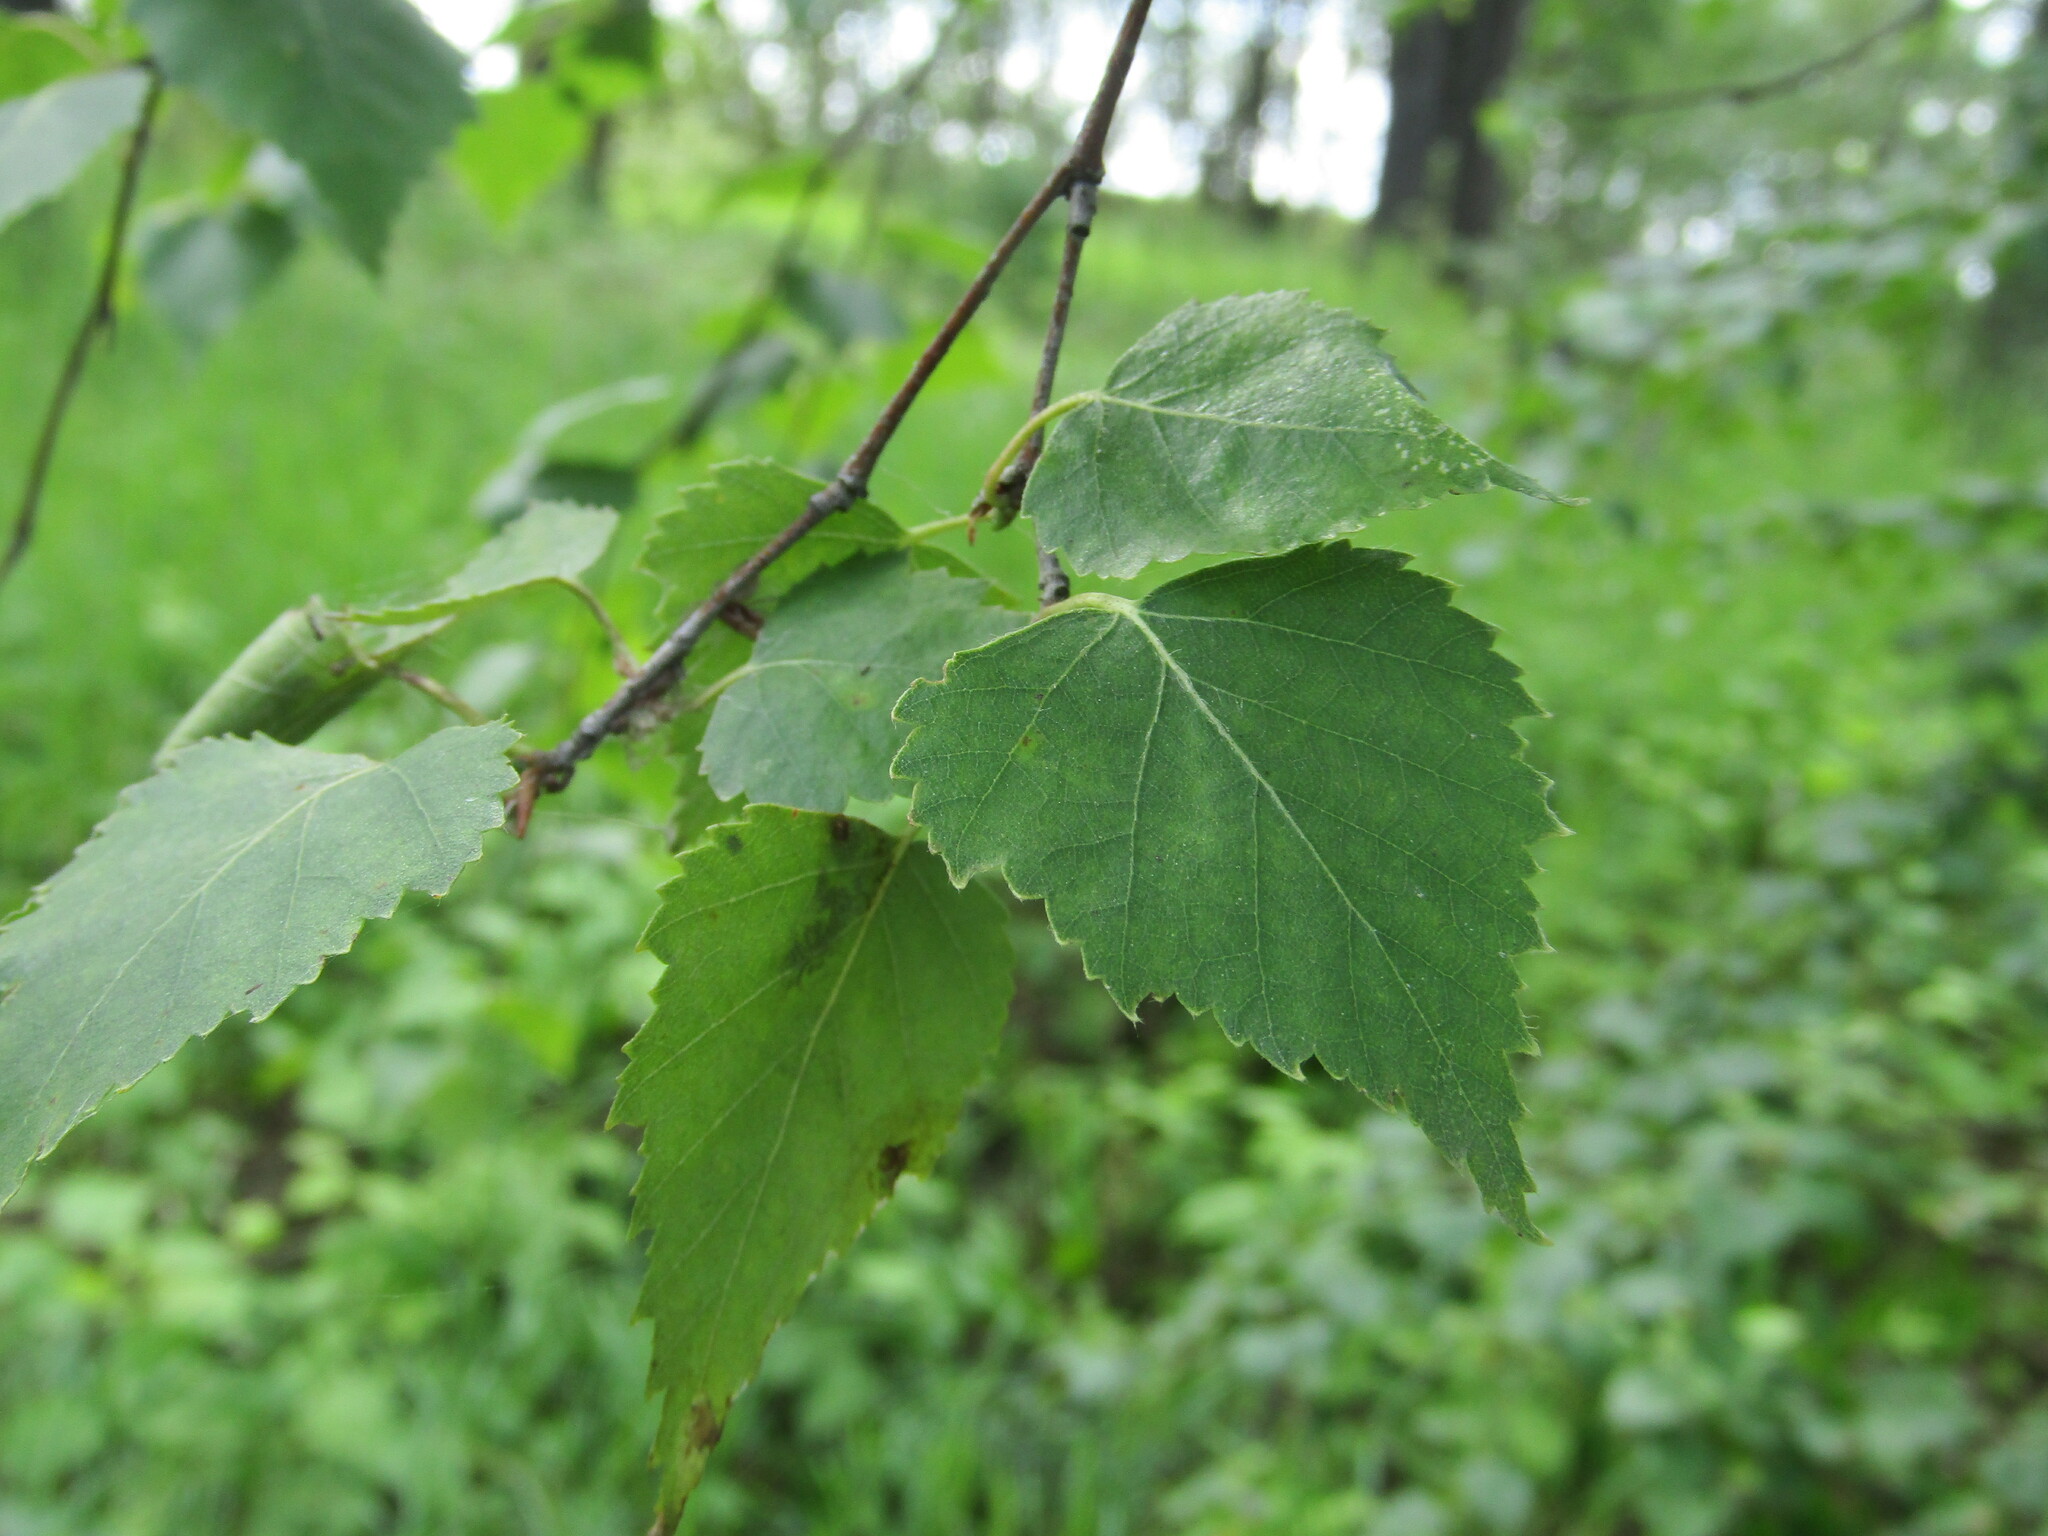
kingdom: Plantae
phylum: Tracheophyta
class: Magnoliopsida
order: Fagales
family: Betulaceae
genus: Betula
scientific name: Betula pendula
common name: Silver birch
